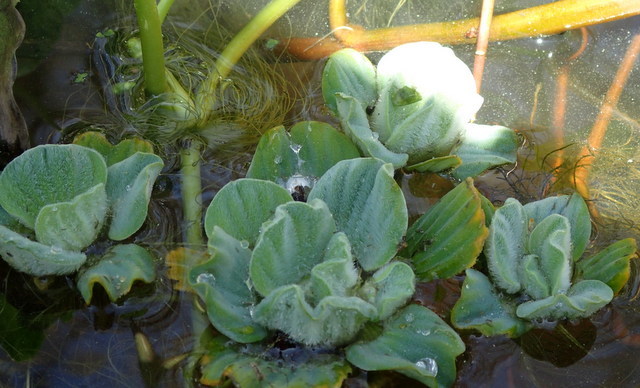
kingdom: Plantae
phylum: Tracheophyta
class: Liliopsida
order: Alismatales
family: Araceae
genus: Pistia
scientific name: Pistia stratiotes
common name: Water lettuce
